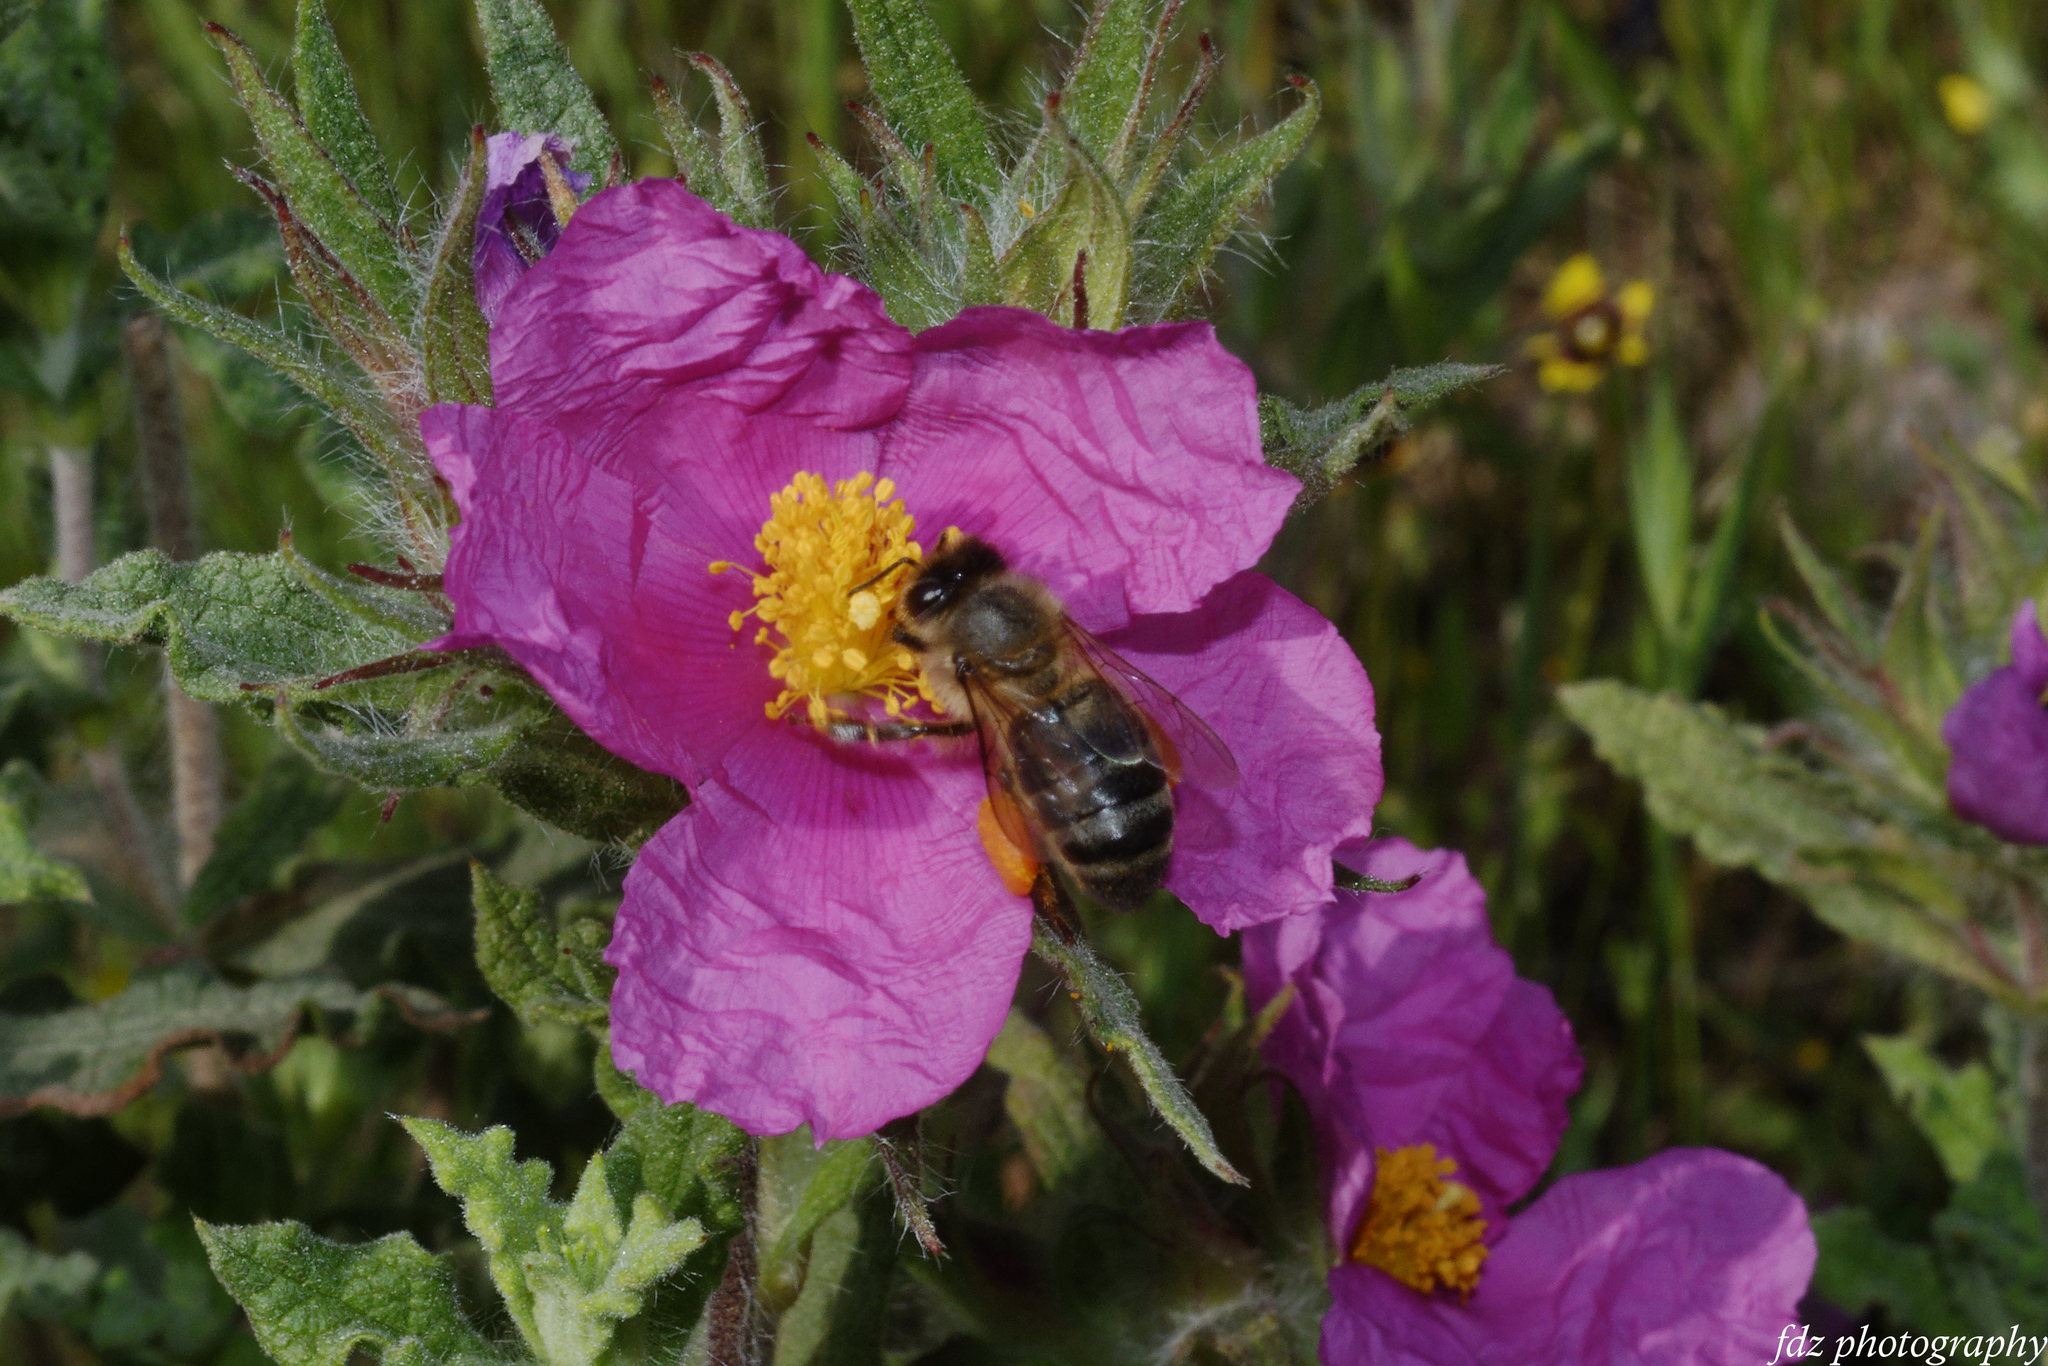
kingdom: Animalia
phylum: Arthropoda
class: Insecta
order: Hymenoptera
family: Apidae
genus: Apis
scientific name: Apis mellifera
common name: Honey bee
